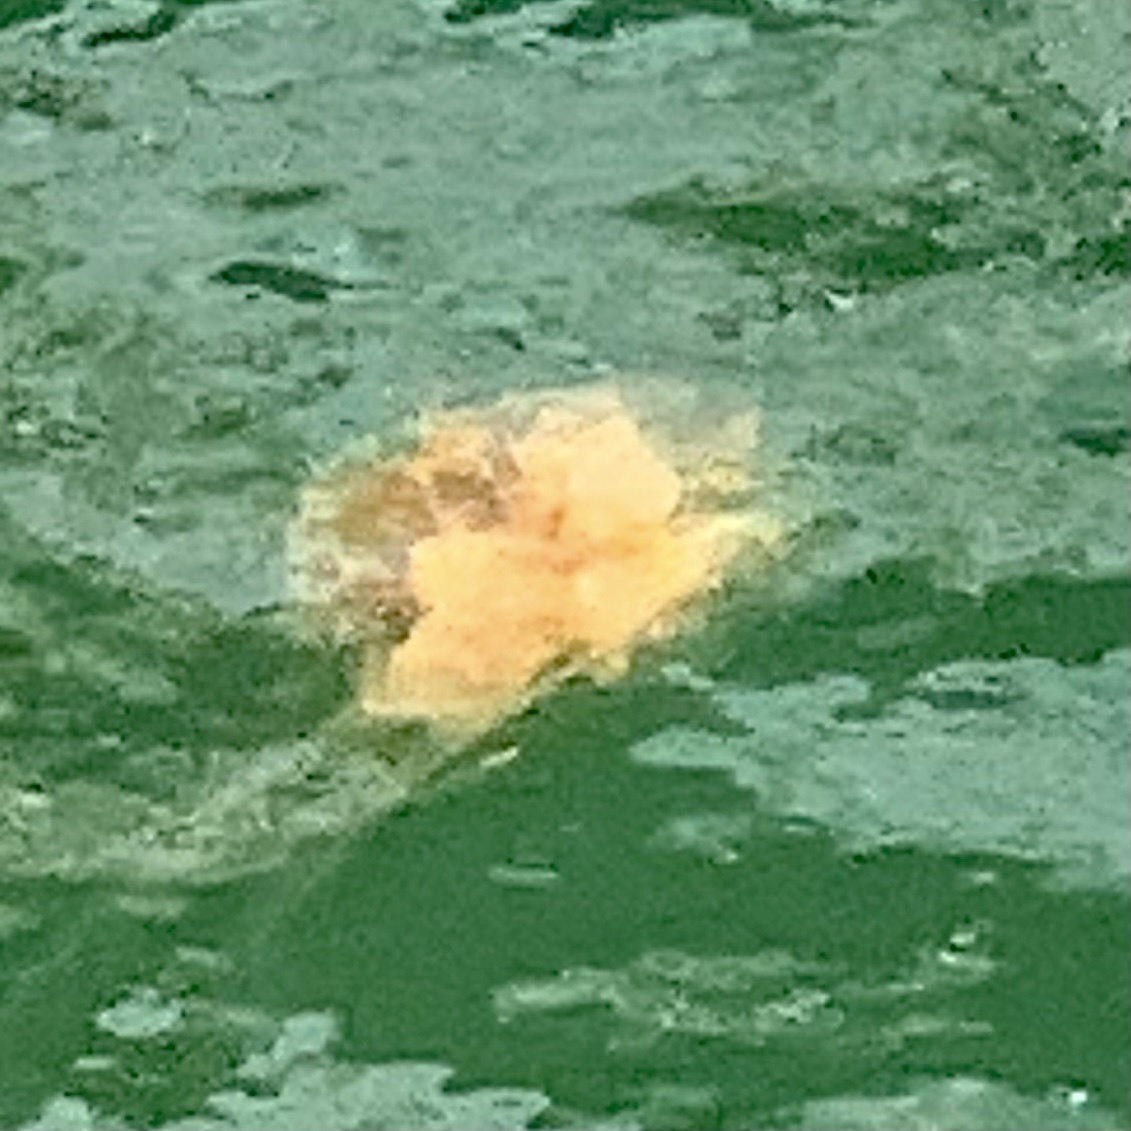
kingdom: Animalia
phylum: Cnidaria
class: Scyphozoa
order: Semaeostomeae
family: Cyaneidae
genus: Cyanea
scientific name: Cyanea capillata
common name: Lion's mane jellyfish
